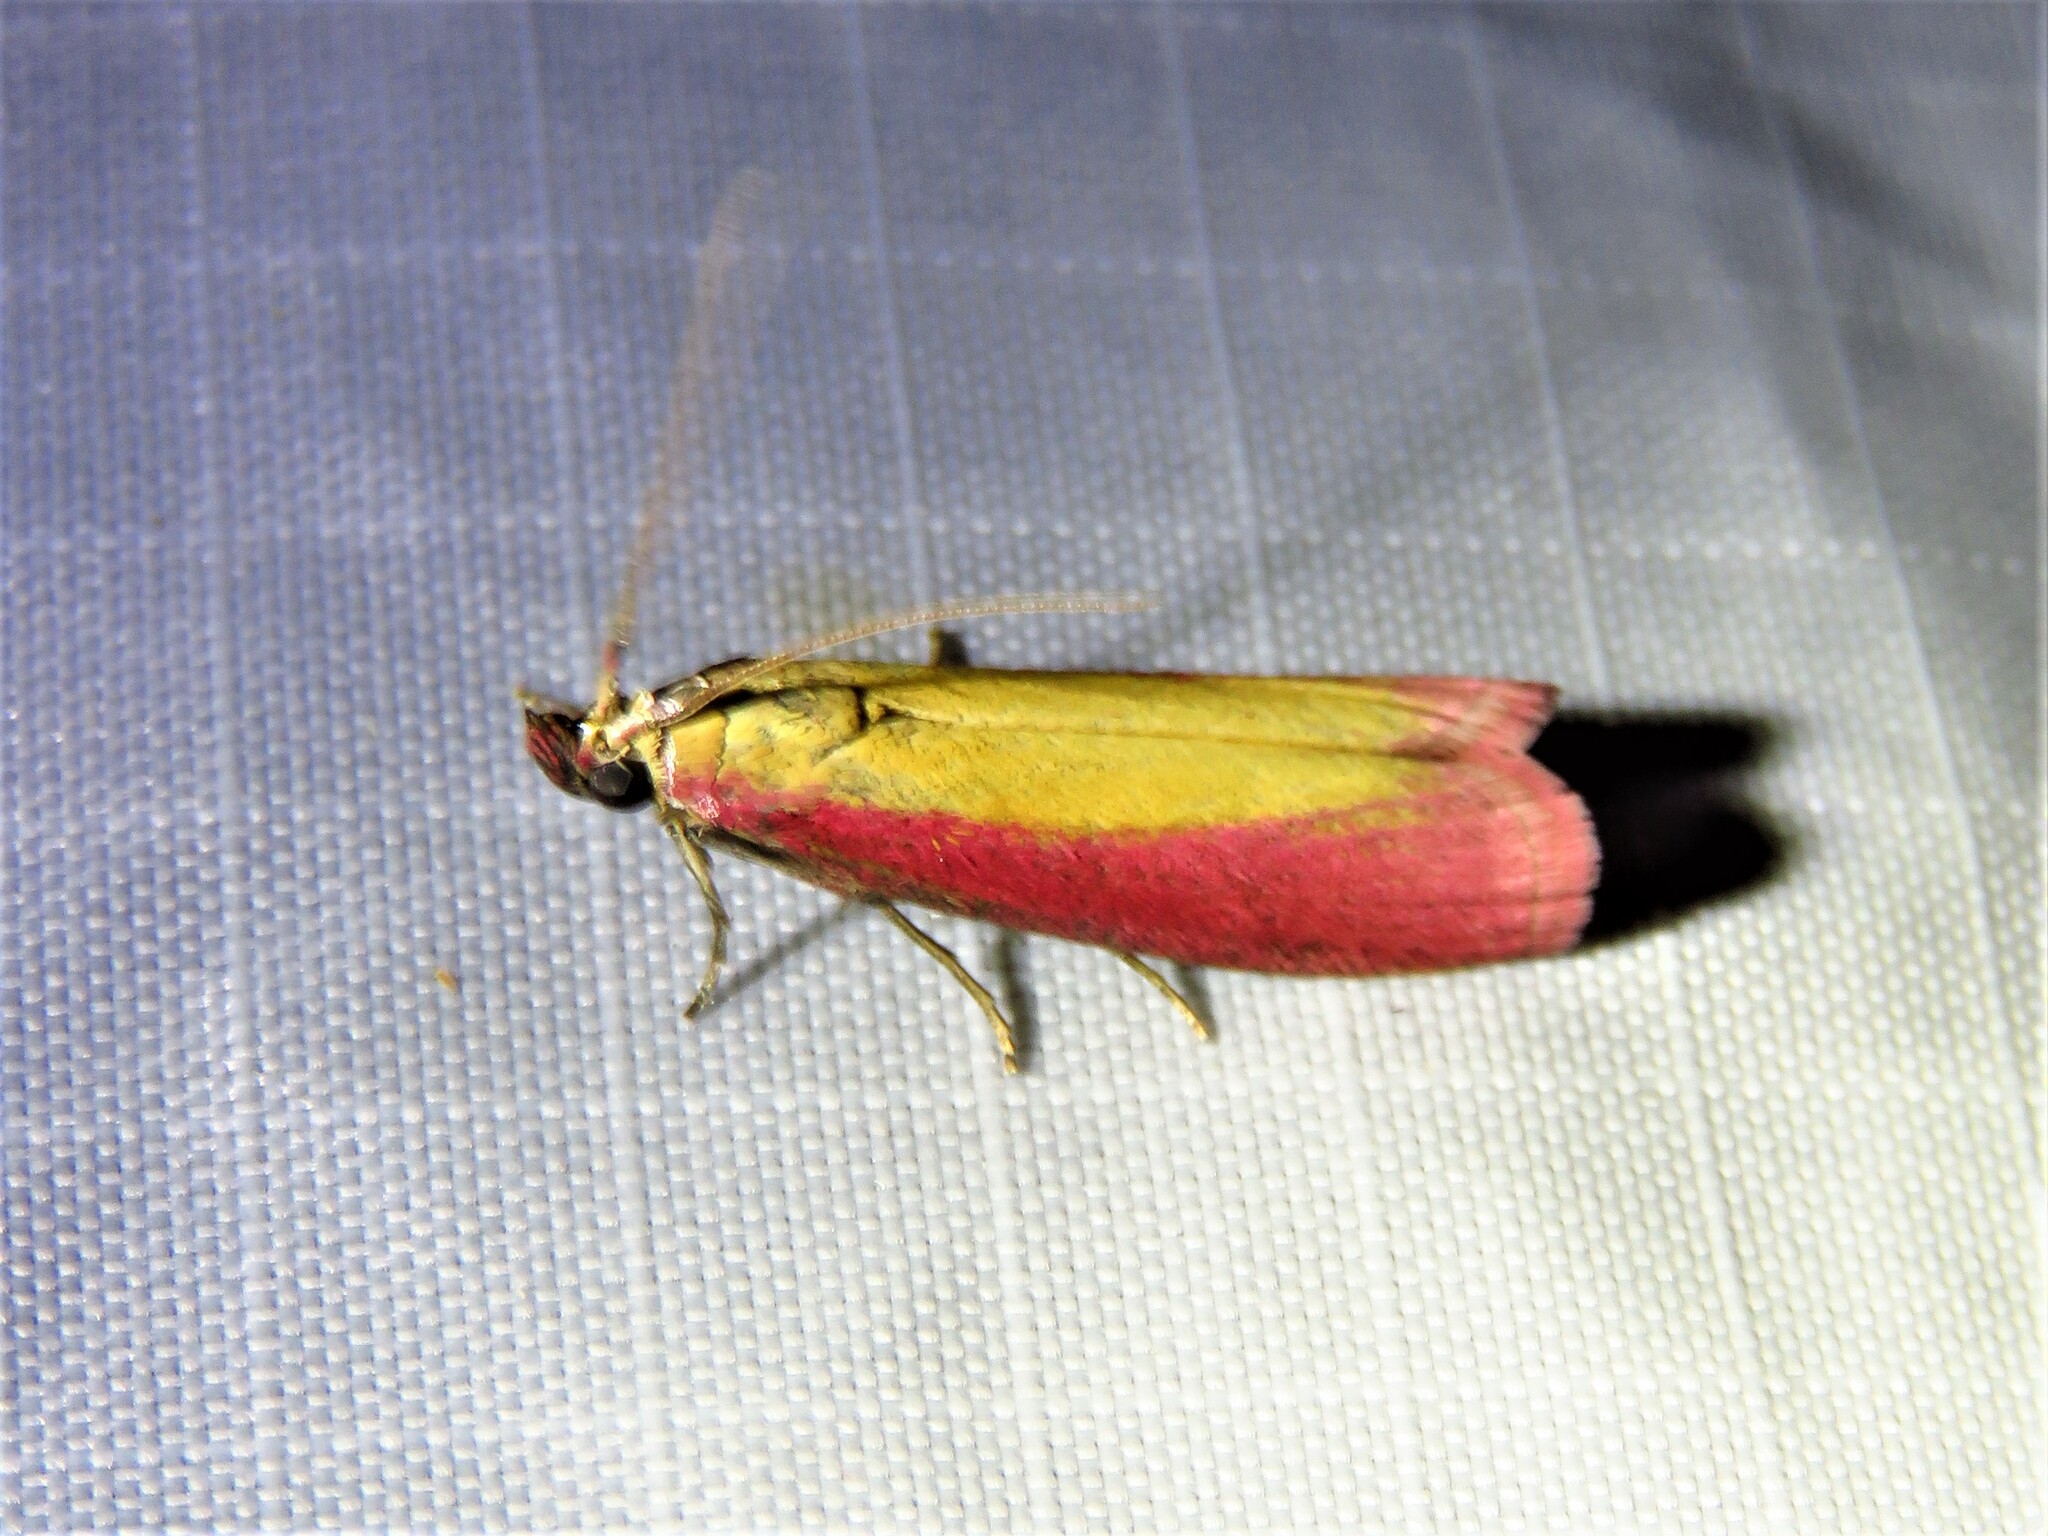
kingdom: Animalia
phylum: Arthropoda
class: Insecta
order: Lepidoptera
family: Pyralidae
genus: Oncocera
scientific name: Oncocera semirubella
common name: Rosy-striped knot-horn
